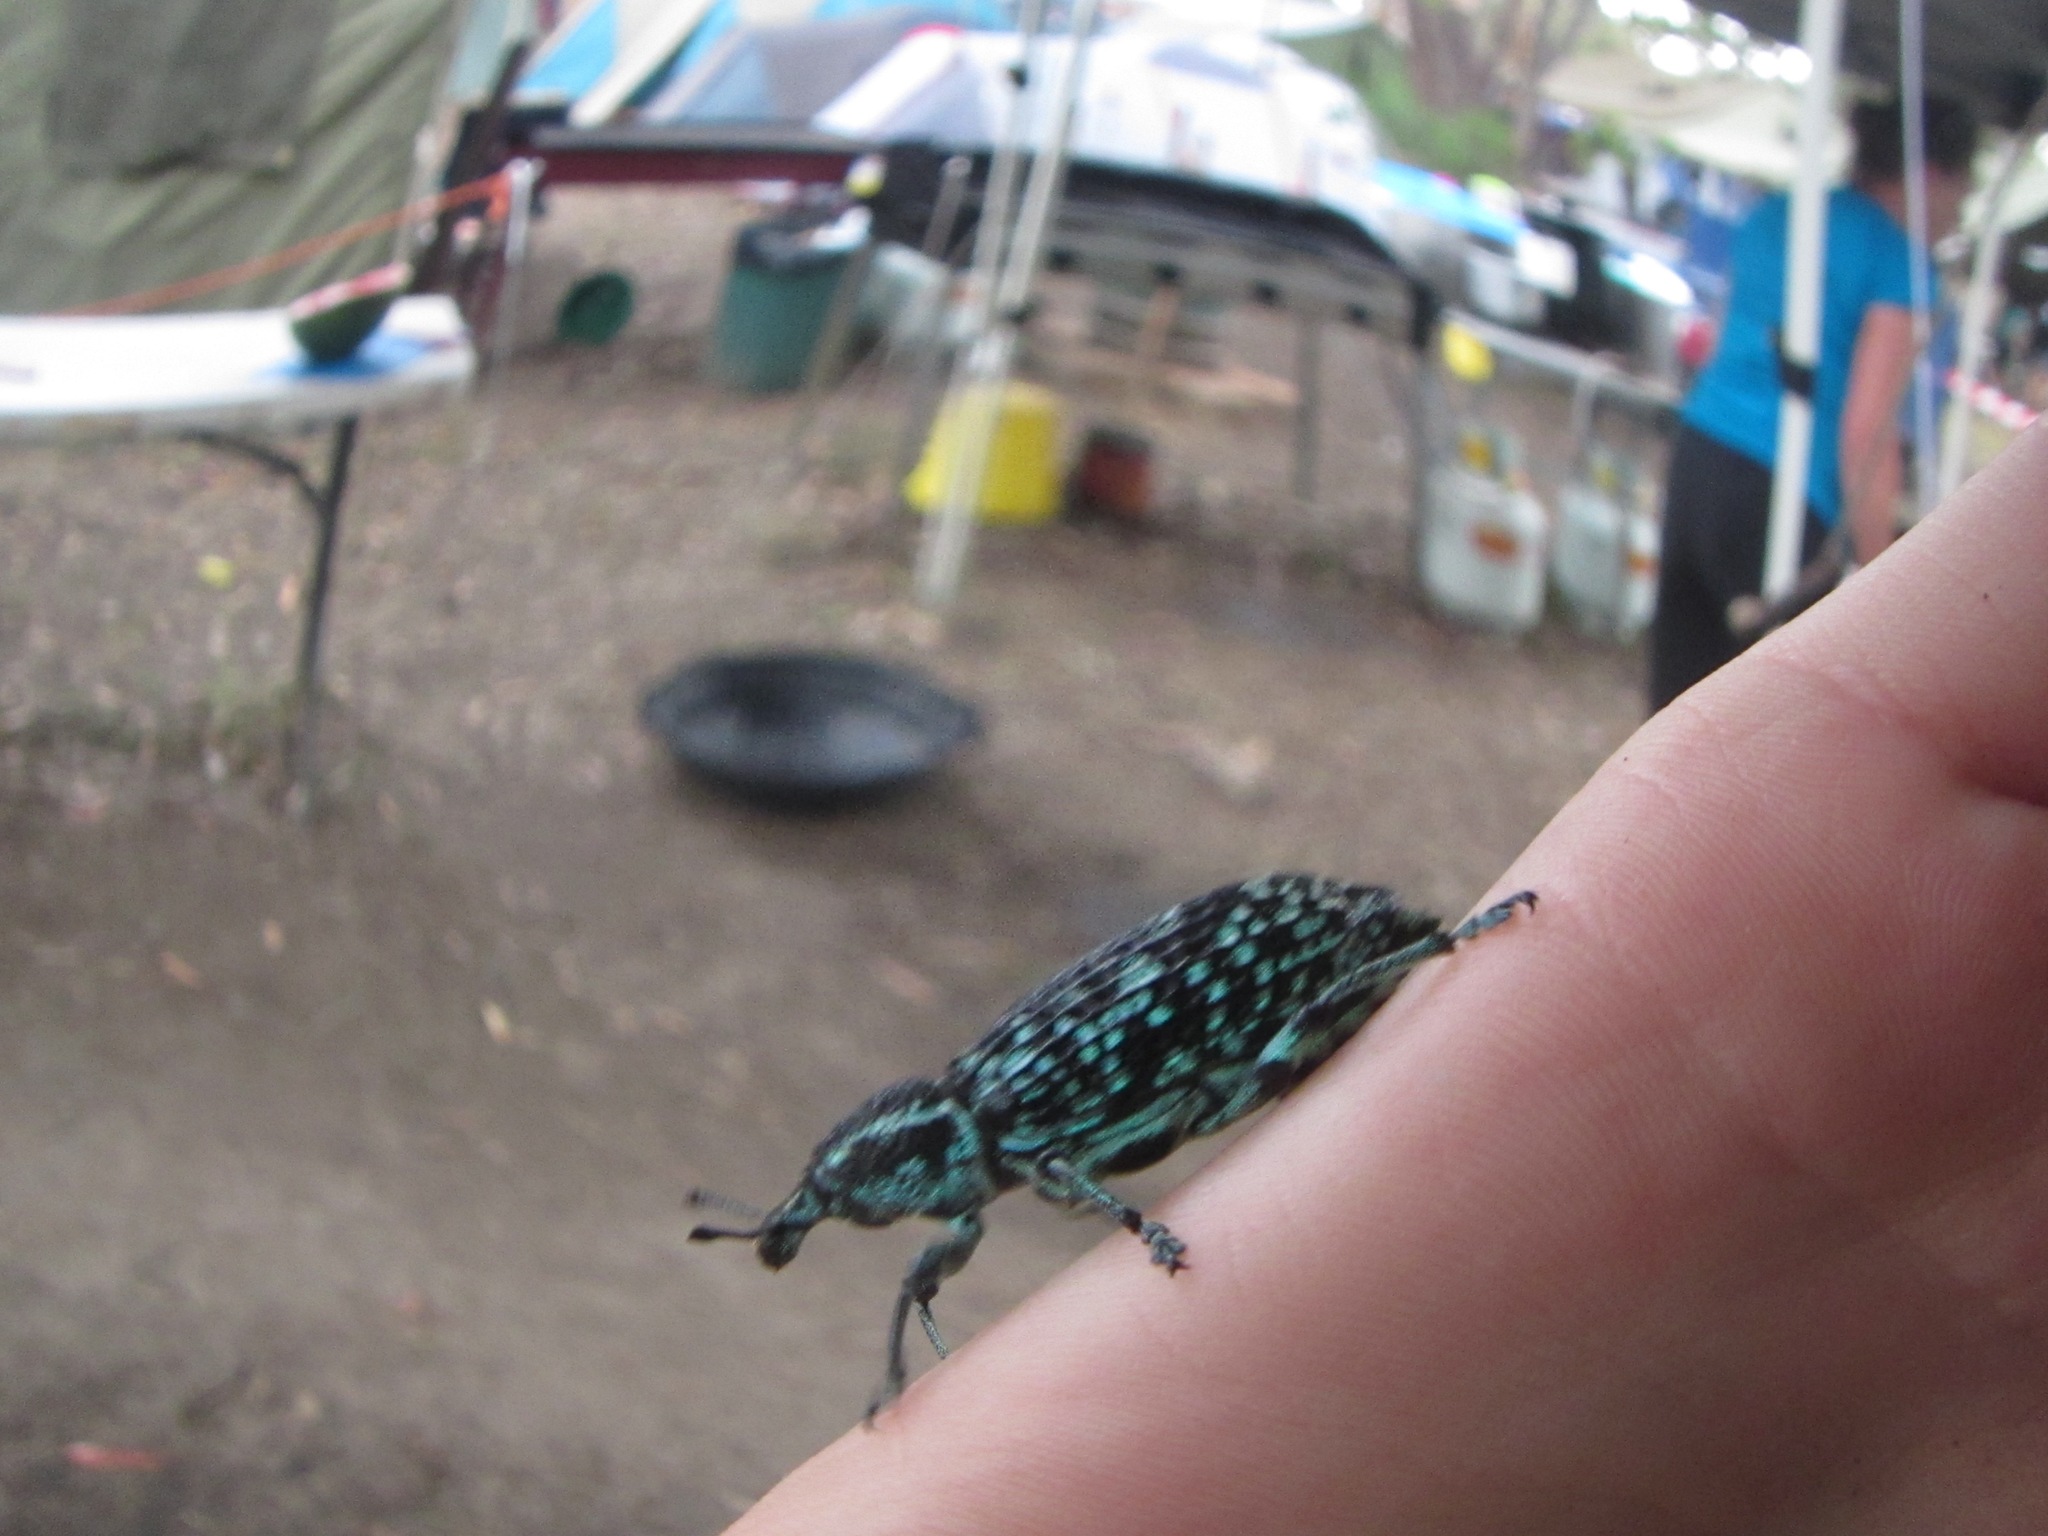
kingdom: Animalia
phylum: Arthropoda
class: Insecta
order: Coleoptera
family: Curculionidae
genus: Chrysolopus
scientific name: Chrysolopus spectabilis
